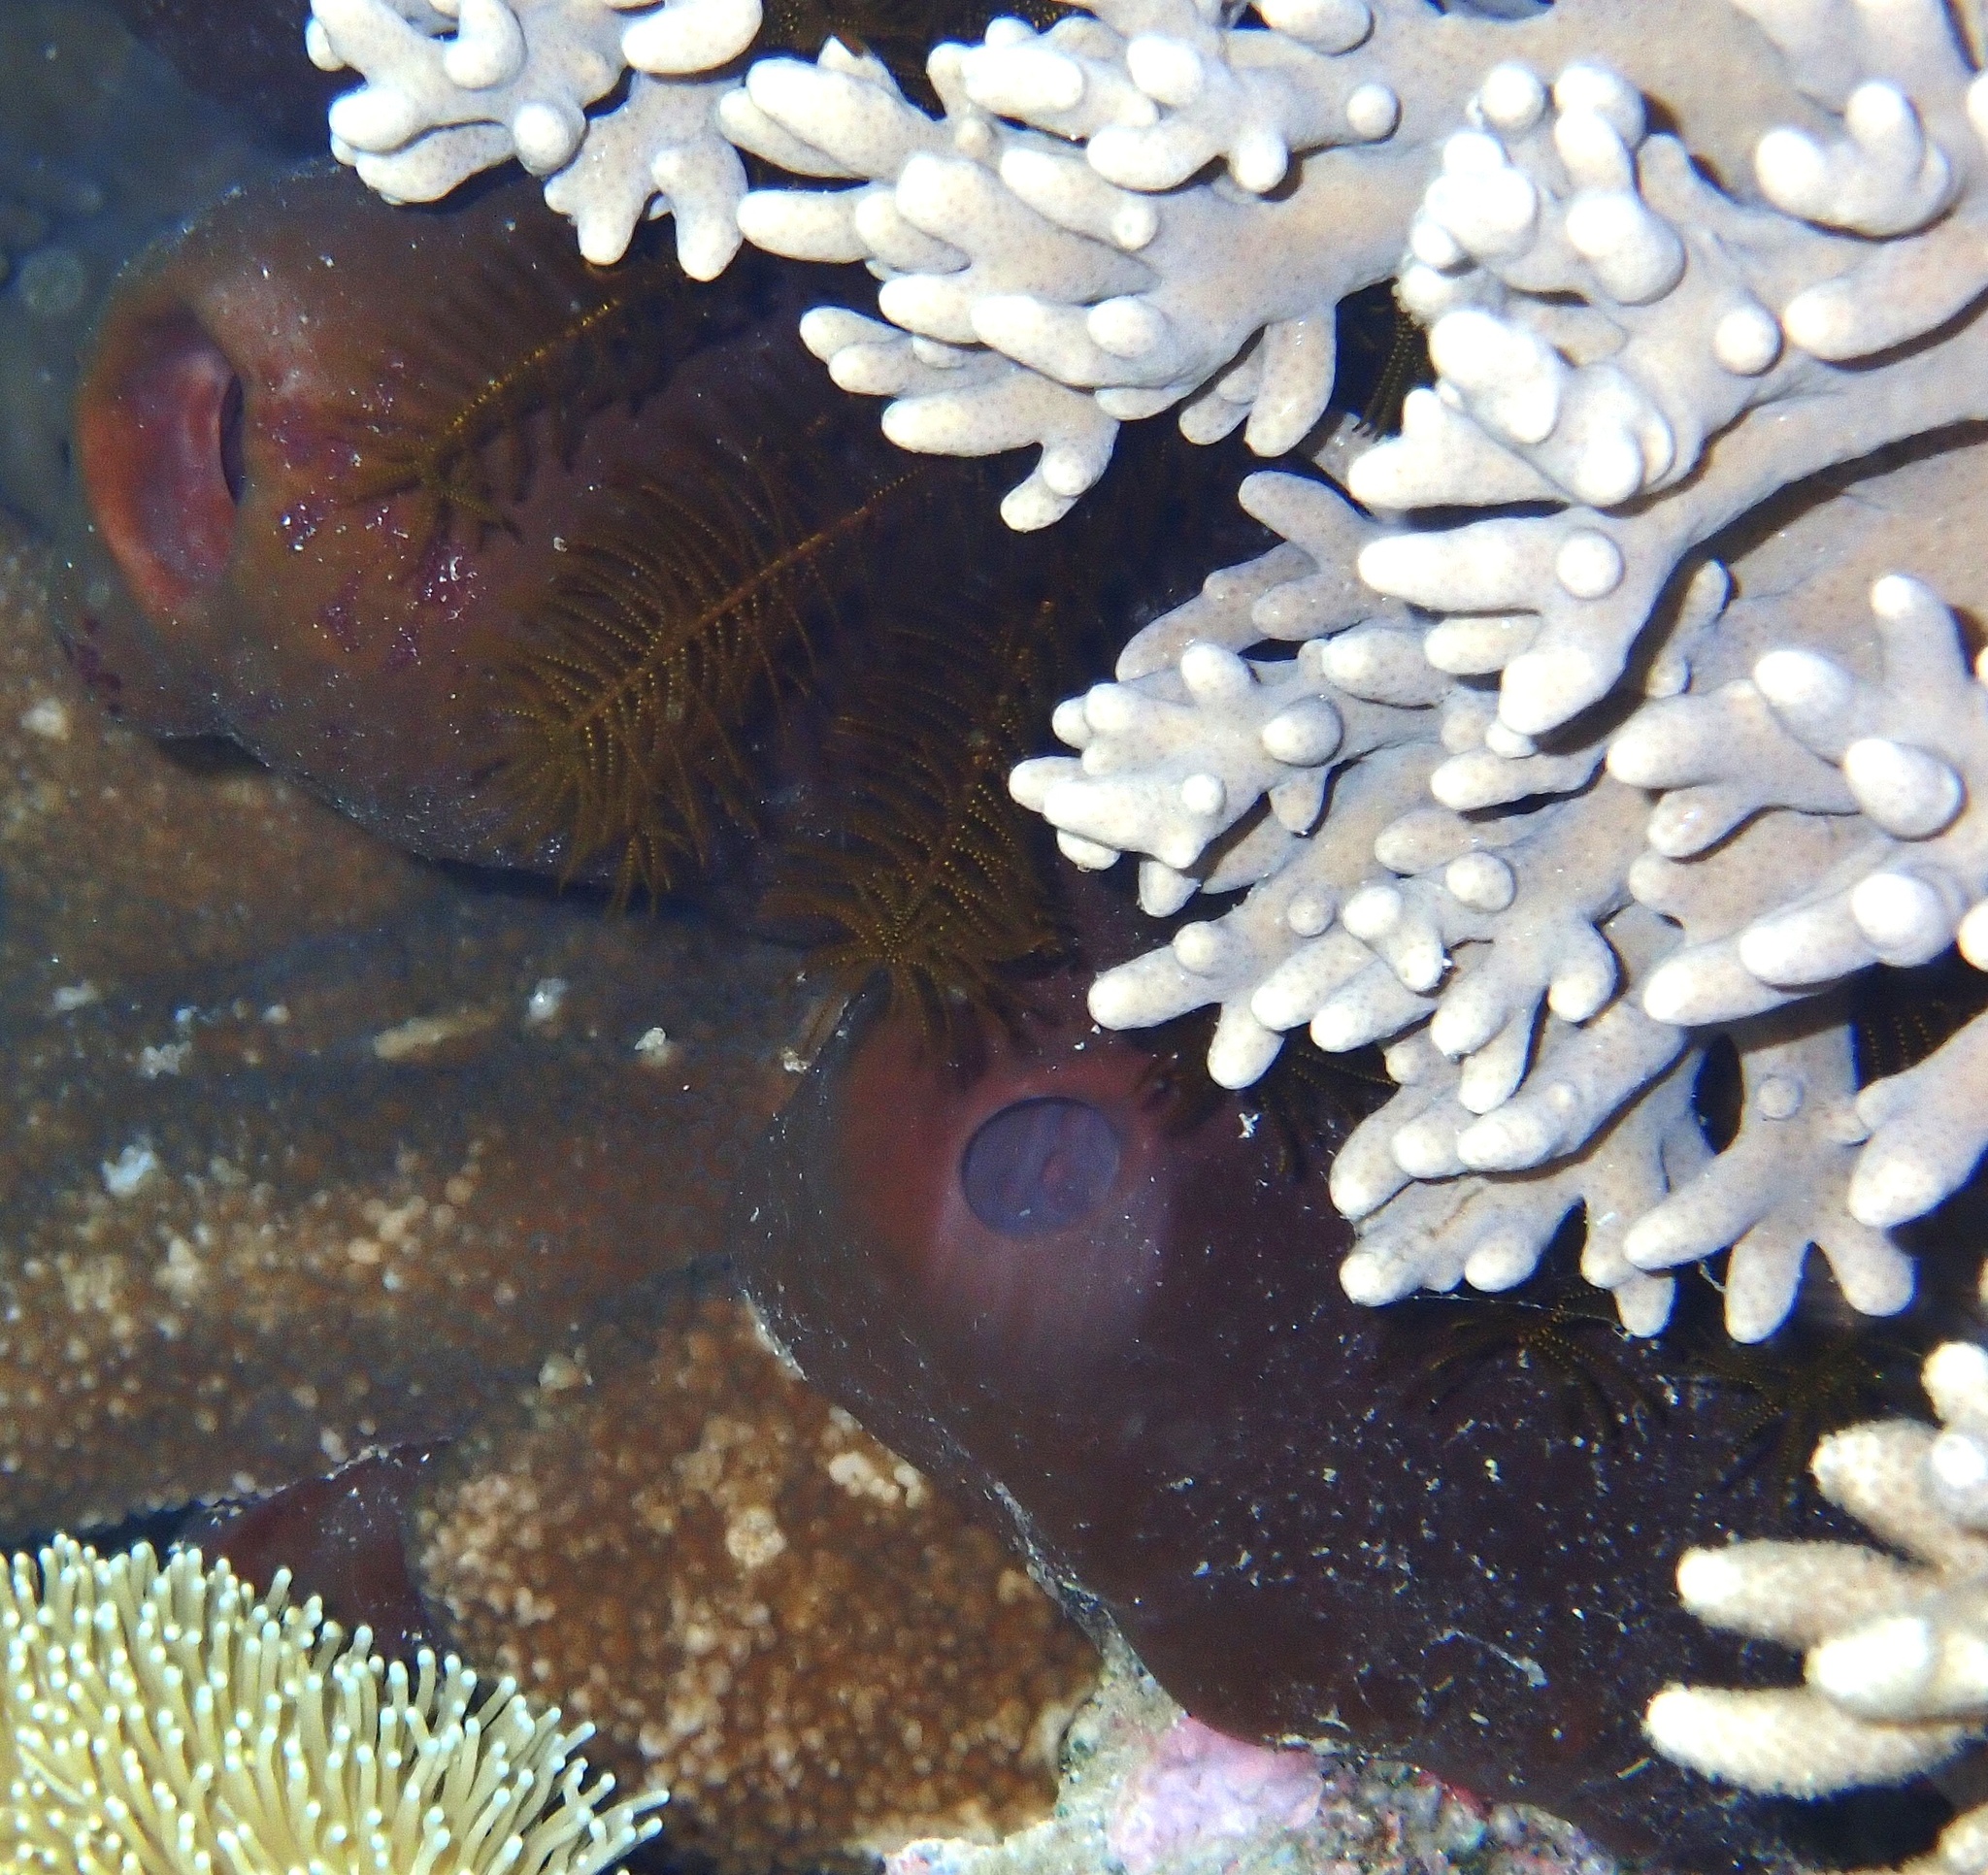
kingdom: Animalia
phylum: Porifera
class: Demospongiae
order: Tetractinellida
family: Theonellidae
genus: Theonella
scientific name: Theonella swinhoei
